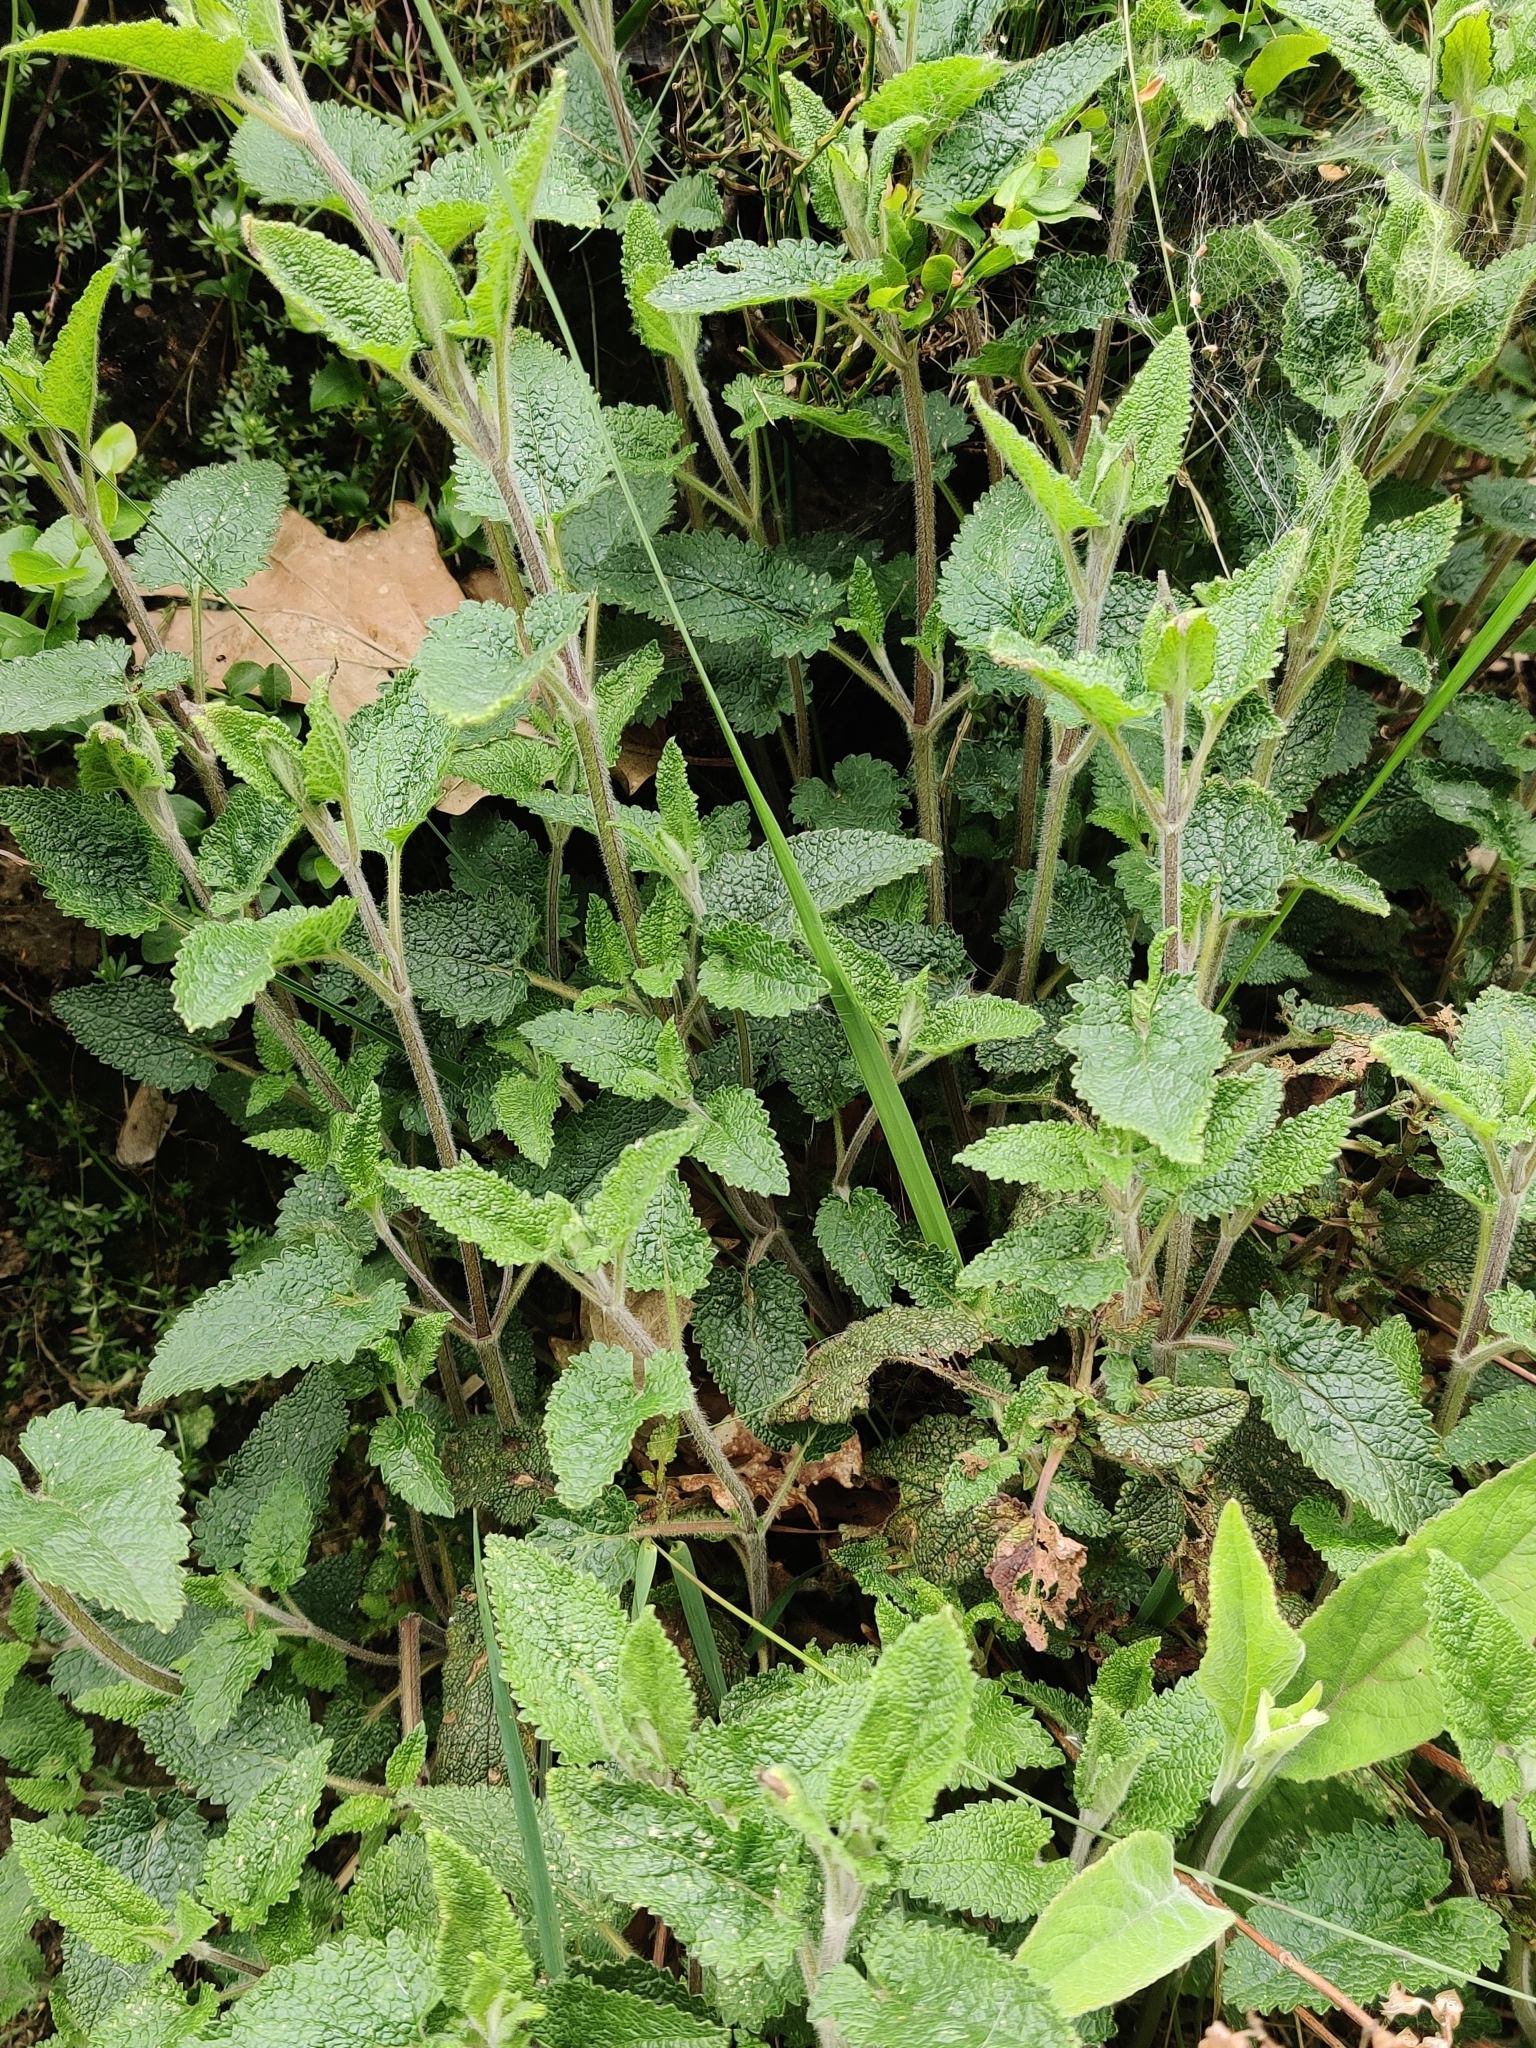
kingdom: Plantae
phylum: Tracheophyta
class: Magnoliopsida
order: Lamiales
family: Lamiaceae
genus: Teucrium
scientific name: Teucrium scorodonia
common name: Woodland germander
